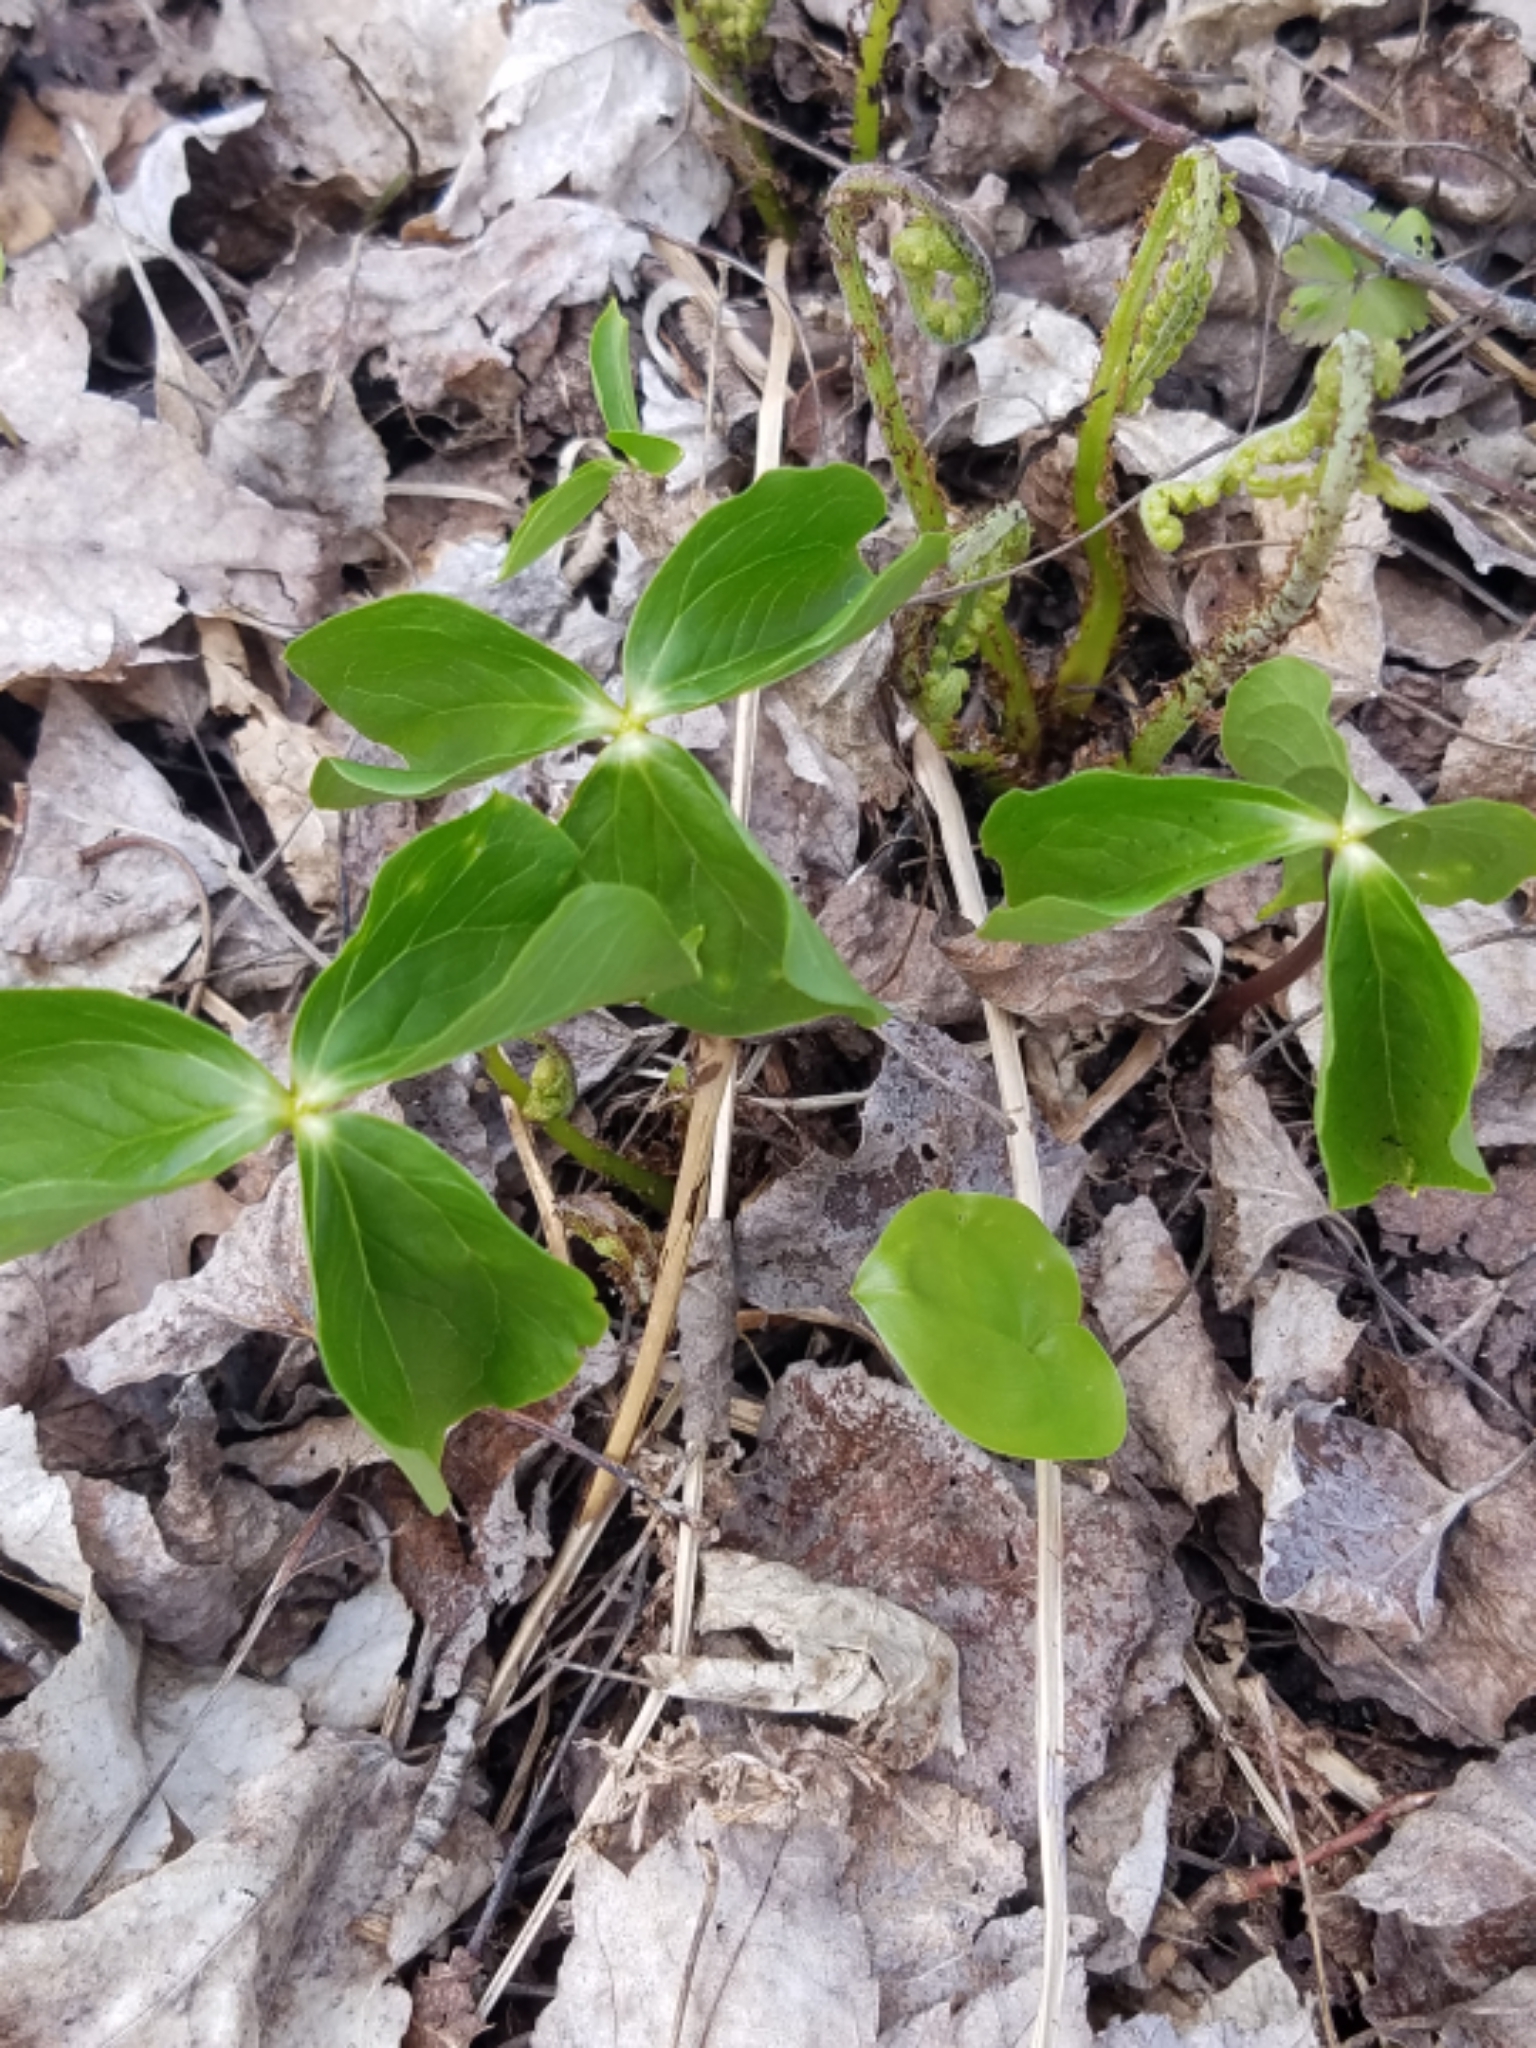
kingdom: Plantae
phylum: Tracheophyta
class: Liliopsida
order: Liliales
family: Melanthiaceae
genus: Trillium
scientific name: Trillium cernuum
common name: Nodding trillium
